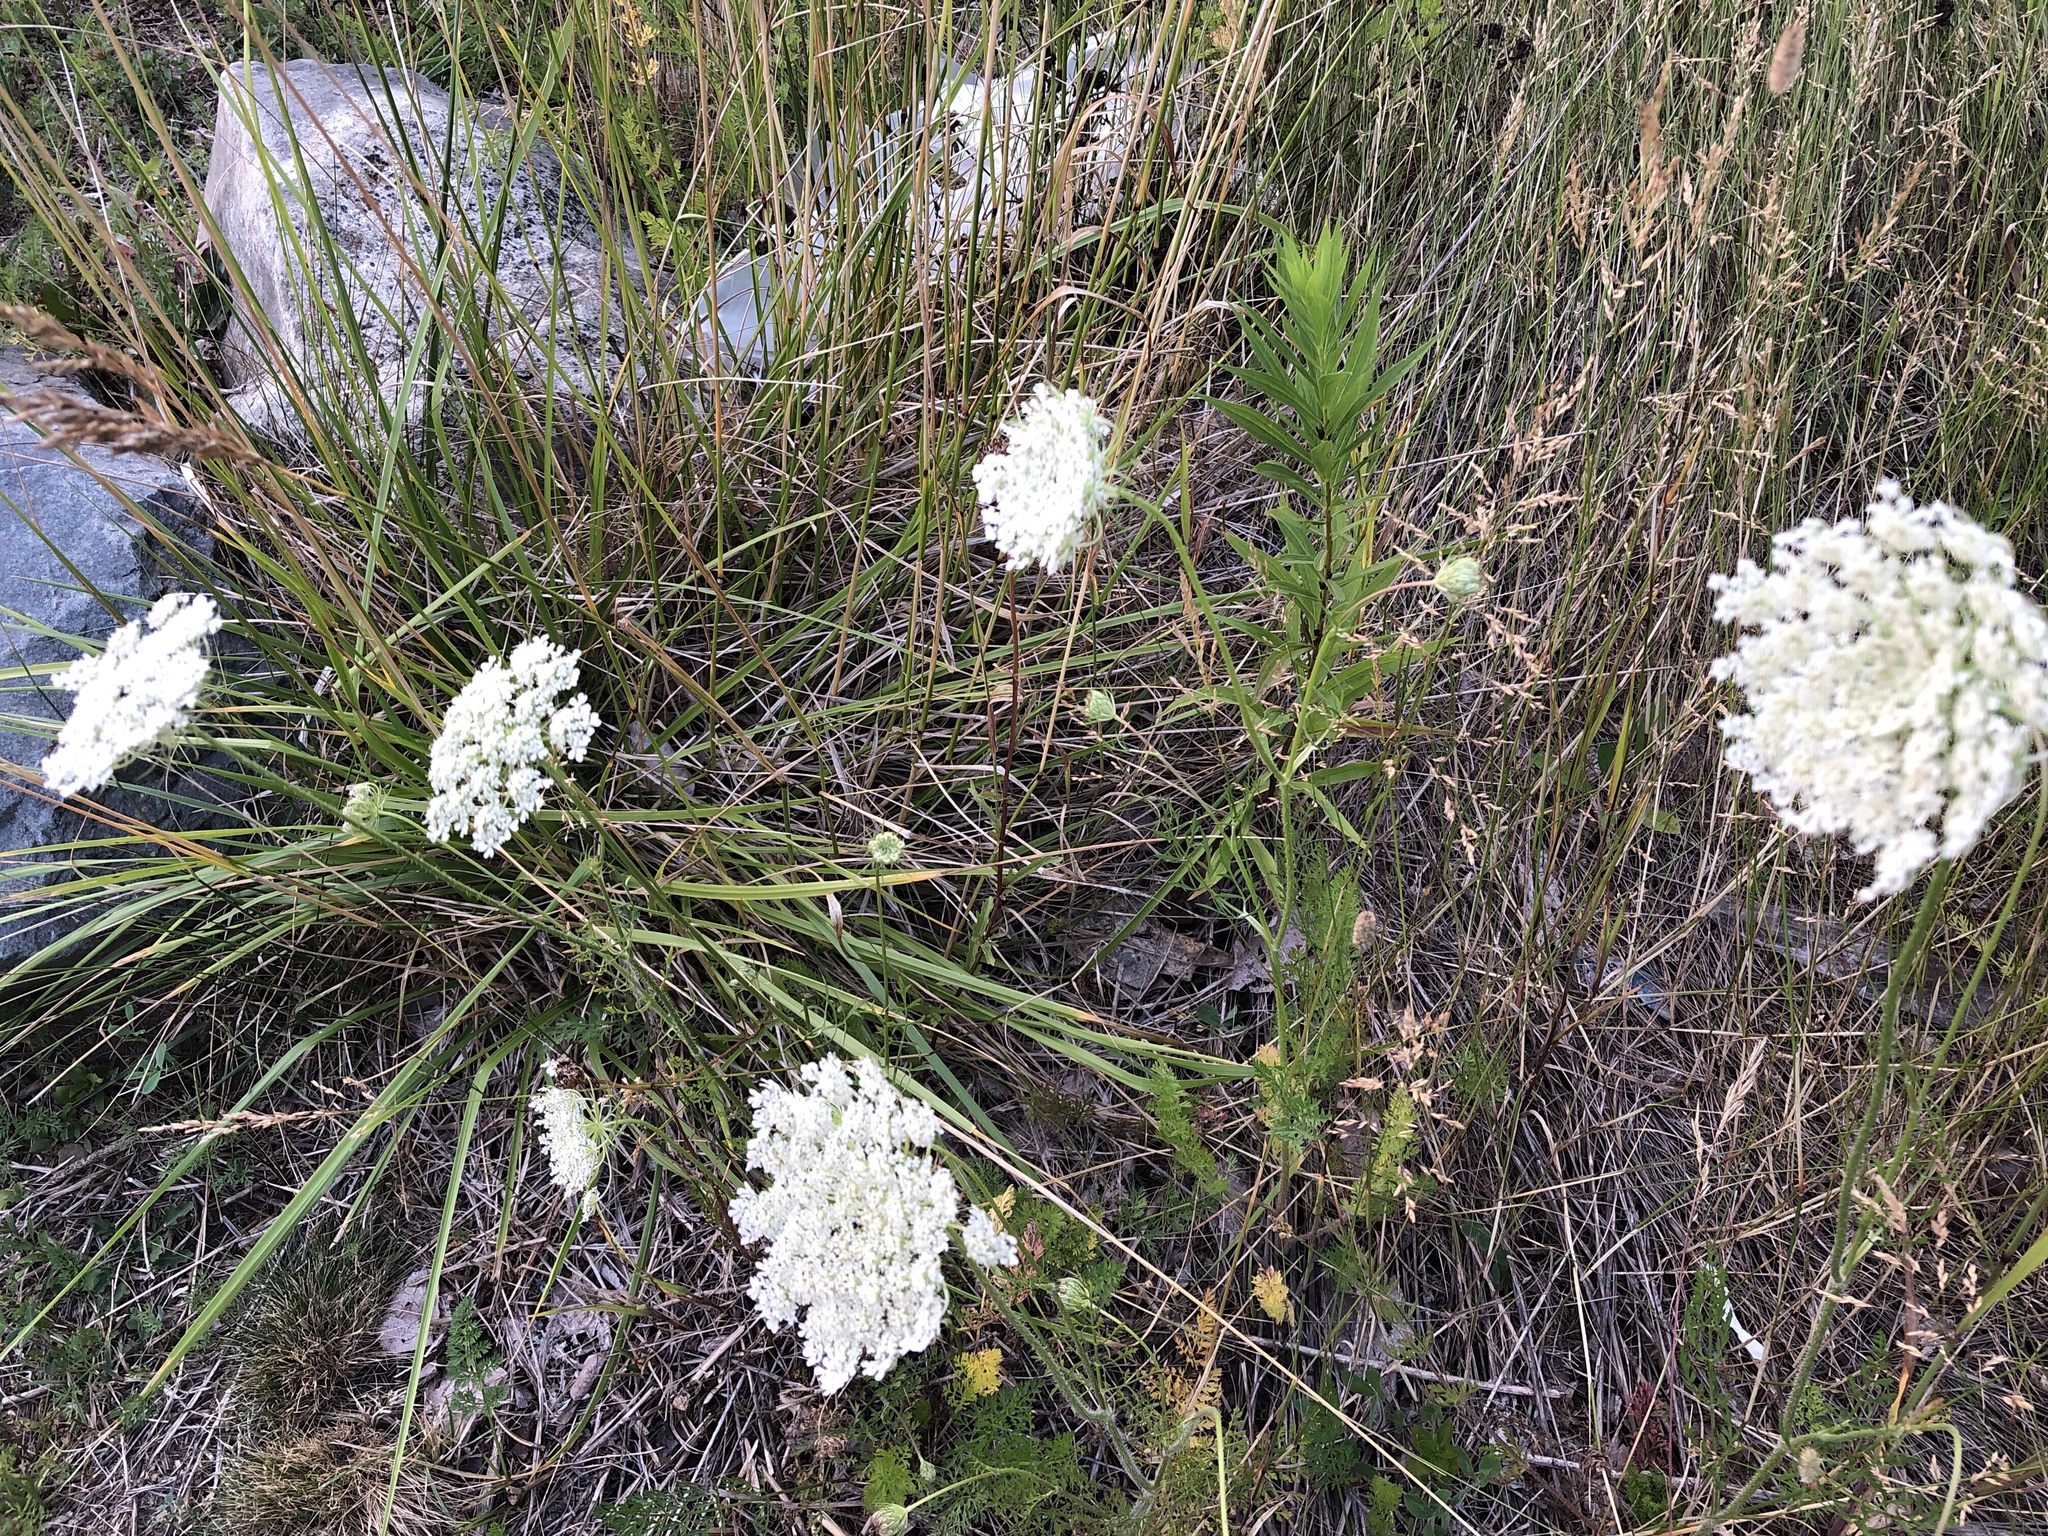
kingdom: Plantae
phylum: Tracheophyta
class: Magnoliopsida
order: Apiales
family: Apiaceae
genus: Daucus
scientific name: Daucus carota
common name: Wild carrot
